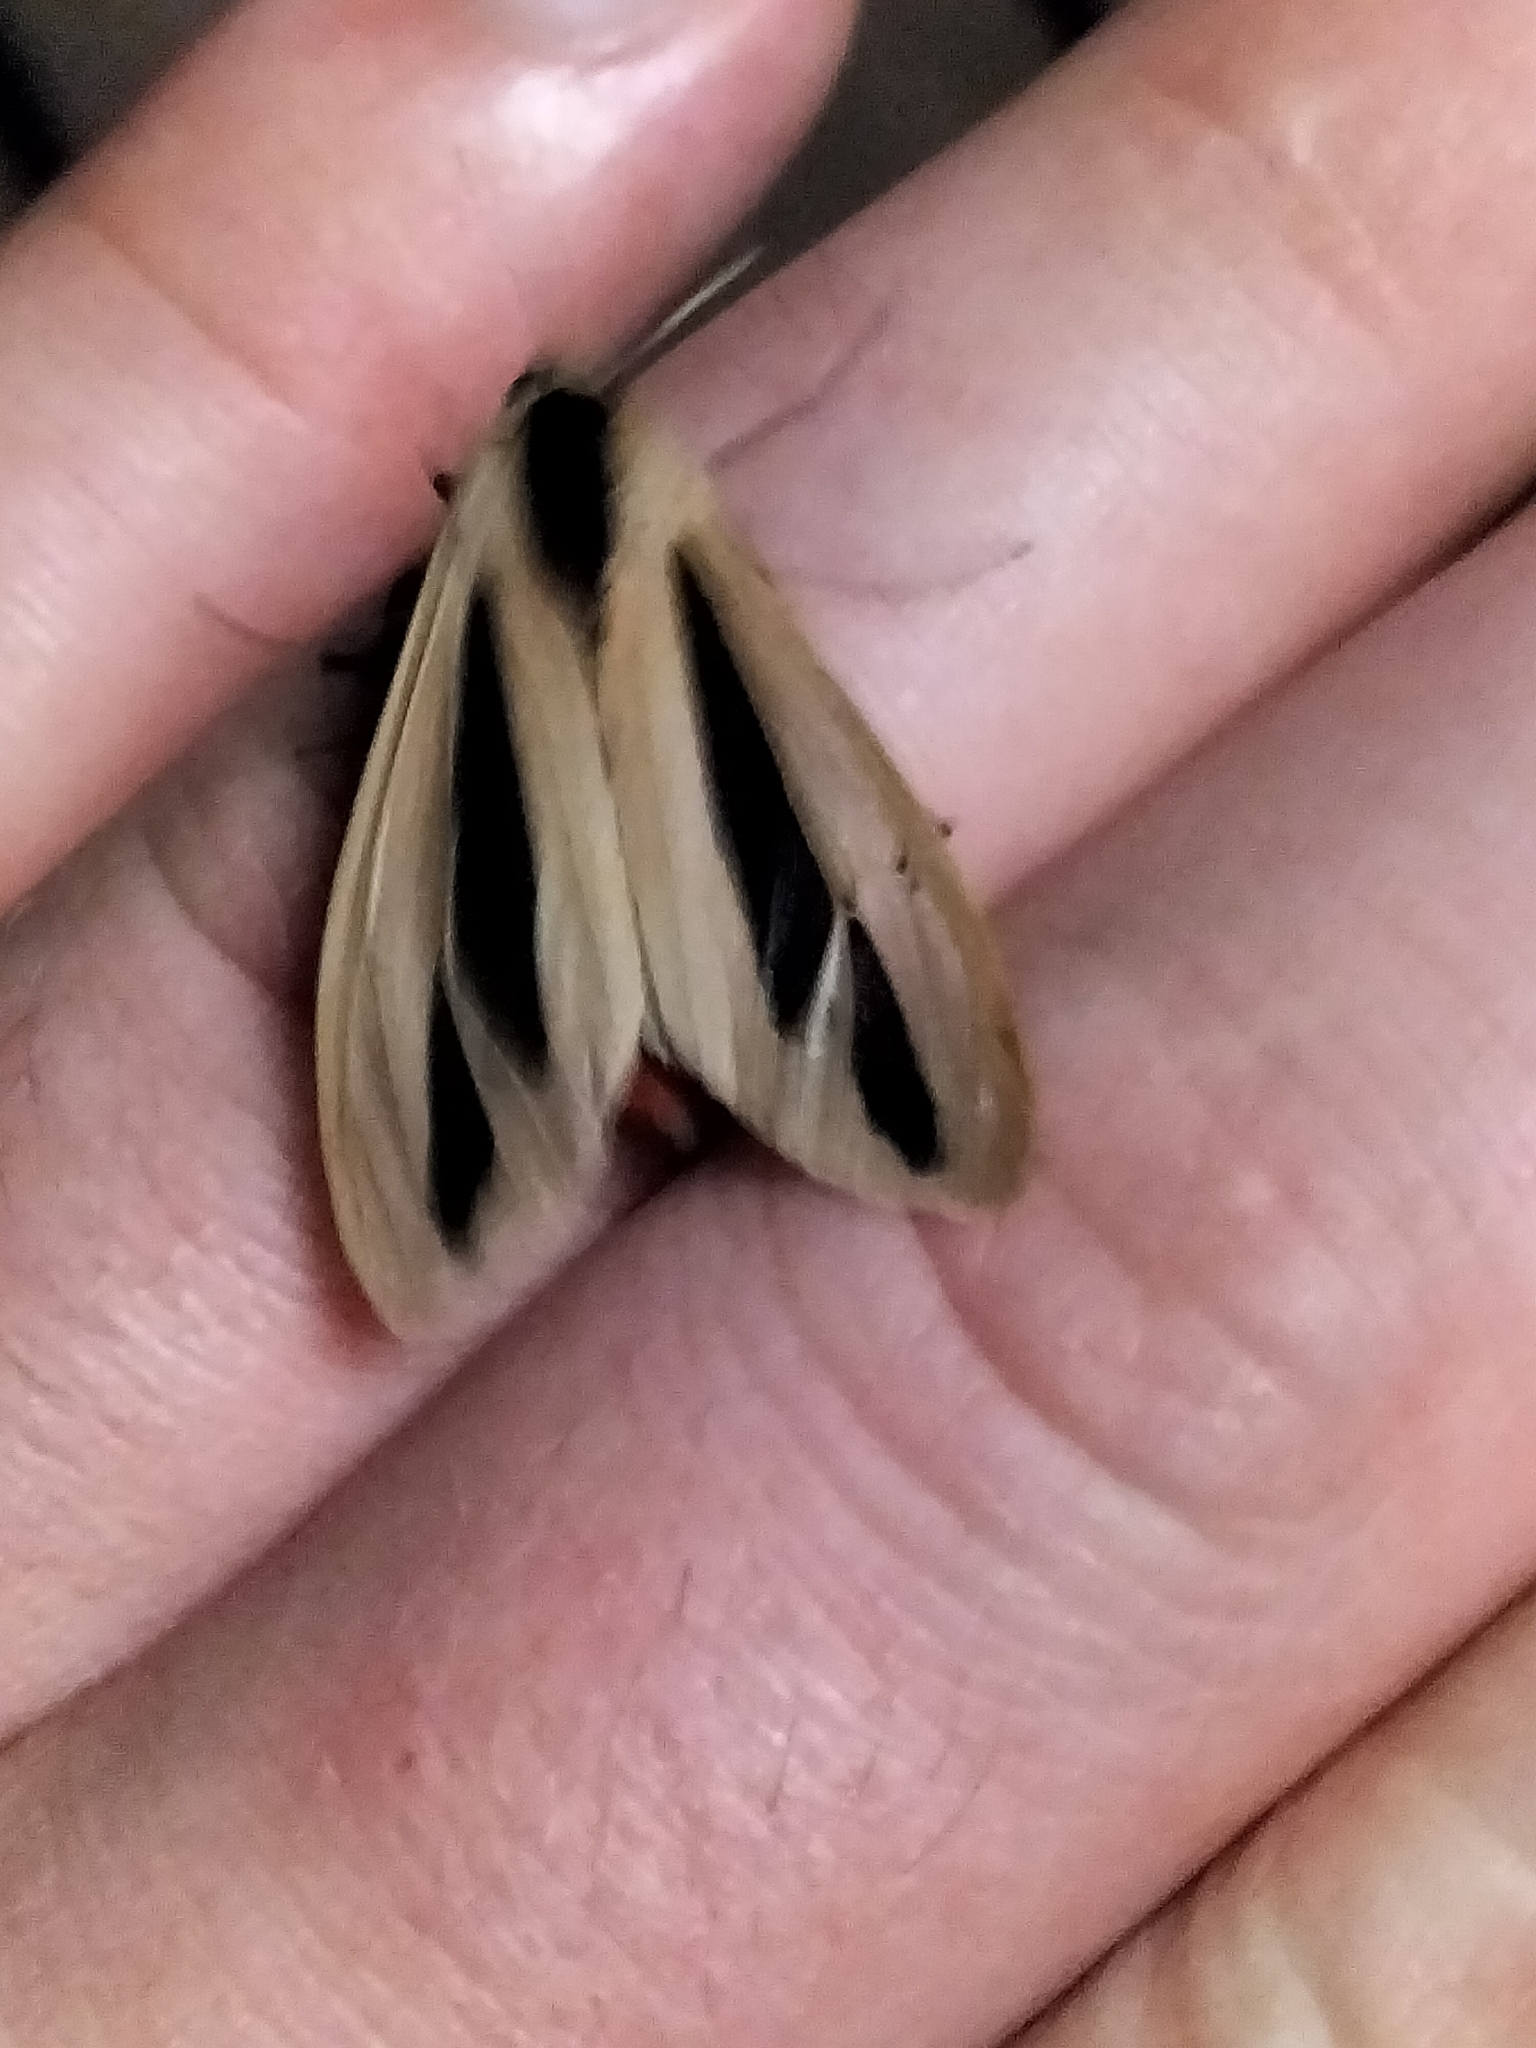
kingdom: Animalia
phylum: Arthropoda
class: Insecta
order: Lepidoptera
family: Erebidae
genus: Creatonotos
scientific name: Creatonotos gangis
